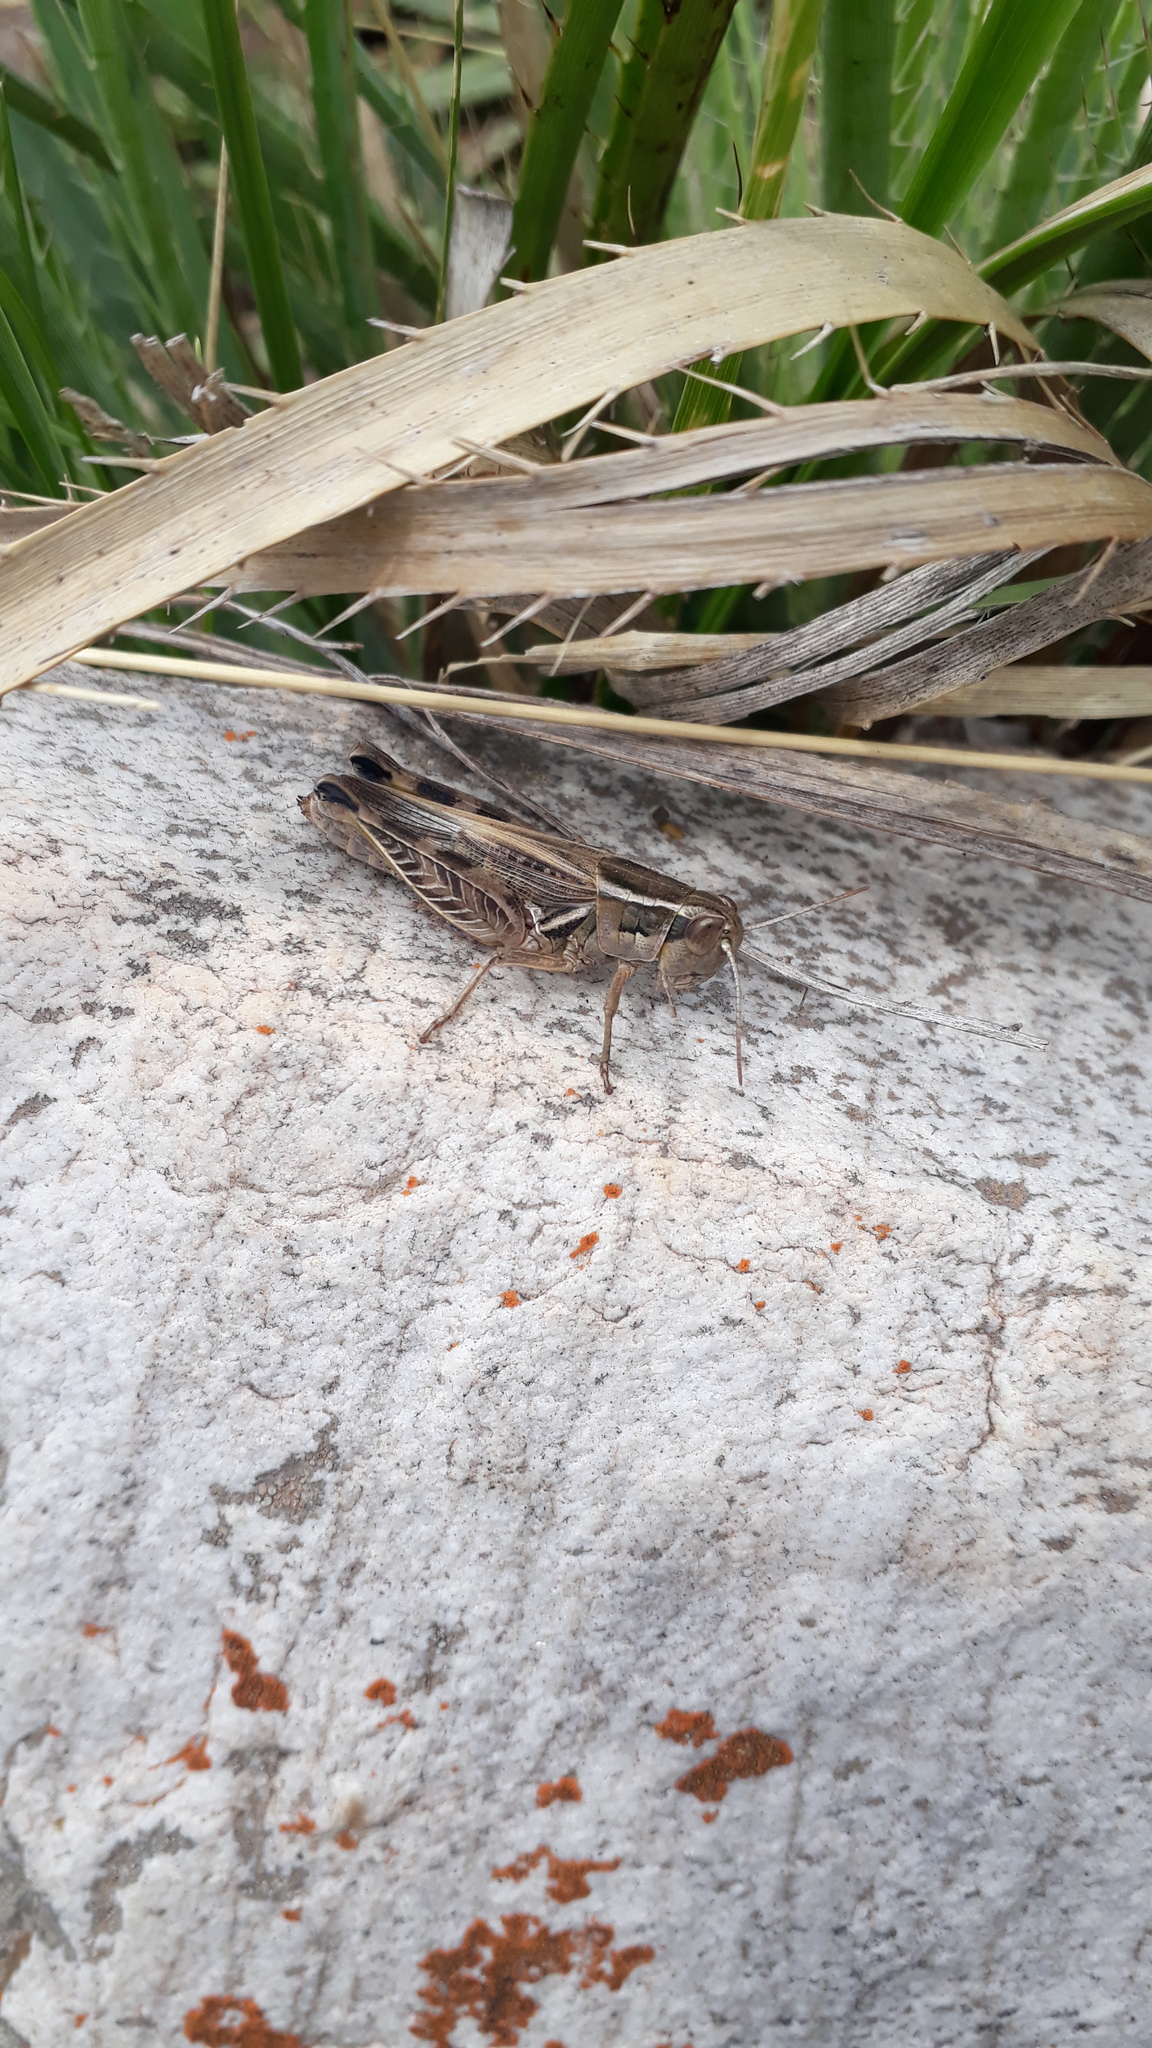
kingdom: Animalia
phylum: Arthropoda
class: Insecta
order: Orthoptera
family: Acrididae
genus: Dichroplus
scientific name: Dichroplus pratensis
